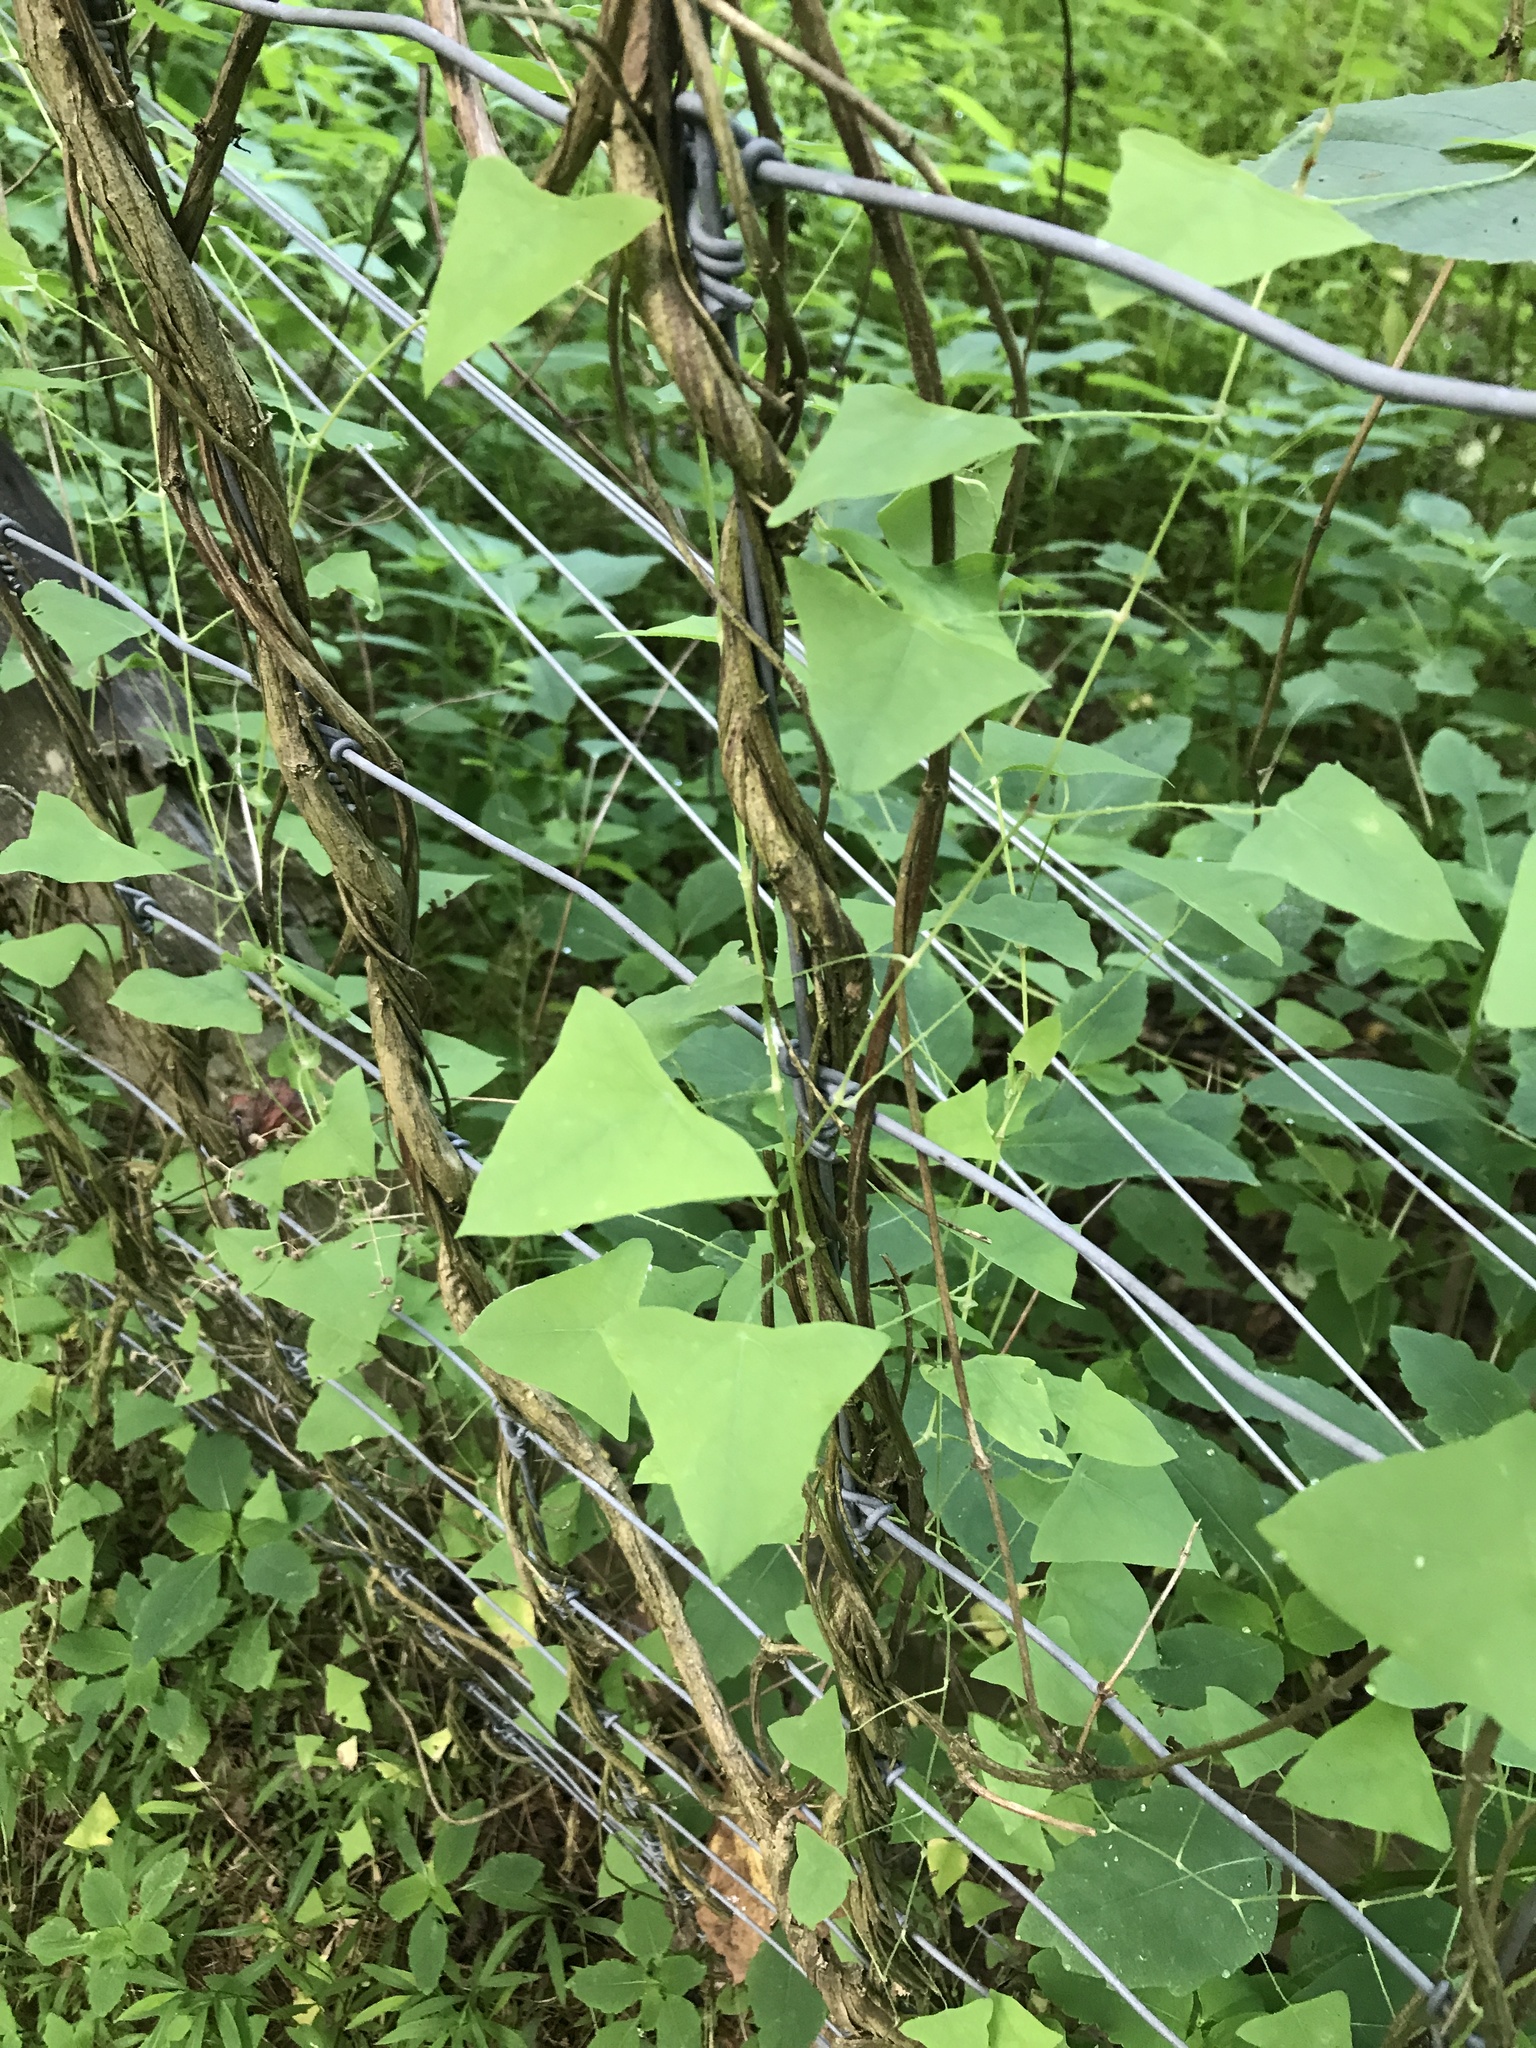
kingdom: Plantae
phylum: Tracheophyta
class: Magnoliopsida
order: Caryophyllales
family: Polygonaceae
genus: Persicaria
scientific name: Persicaria perfoliata
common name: Asiatic tearthumb
